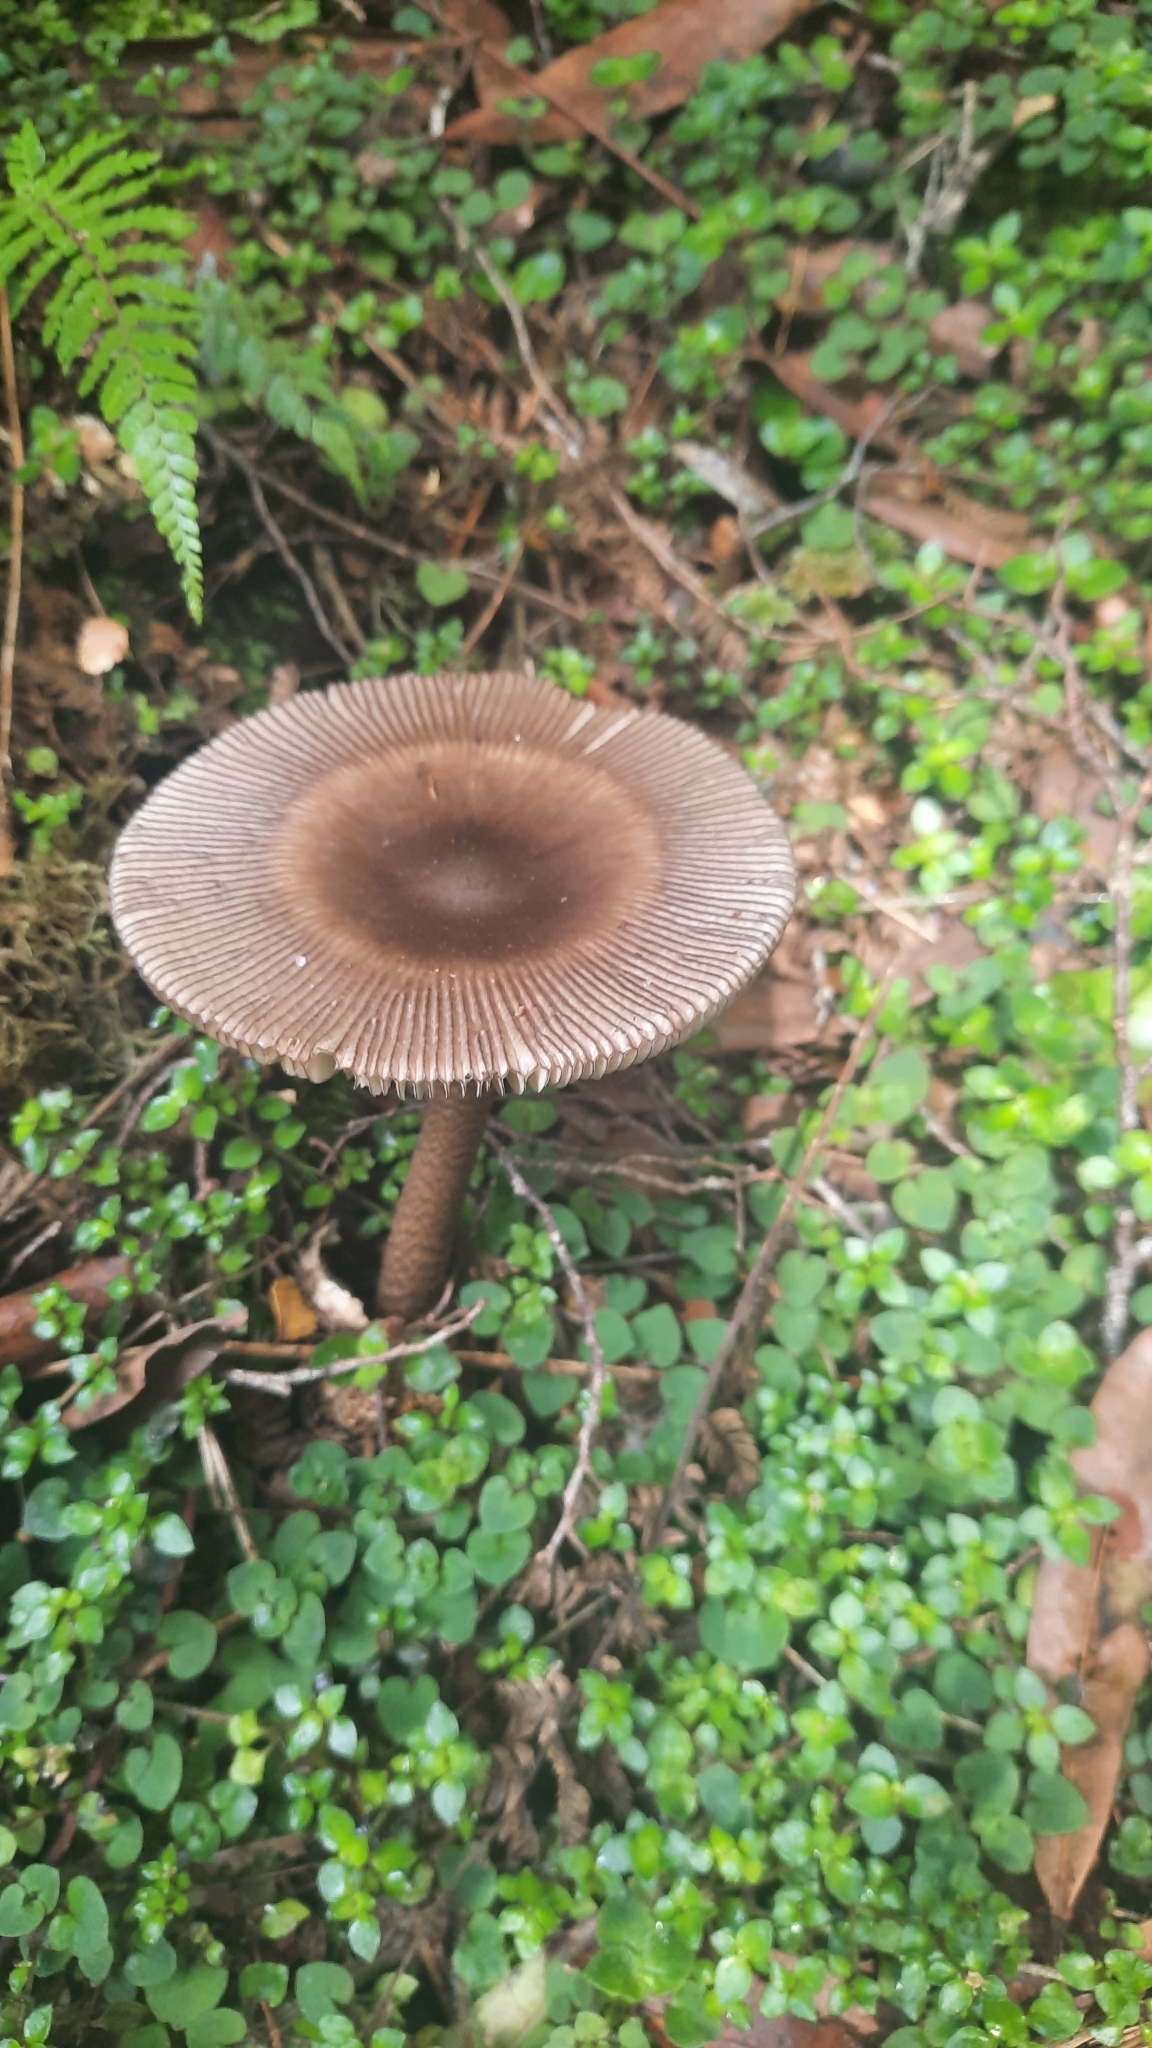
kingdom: Fungi
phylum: Basidiomycota
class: Agaricomycetes
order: Agaricales
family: Amanitaceae
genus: Amanita
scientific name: Amanita pekeoides
